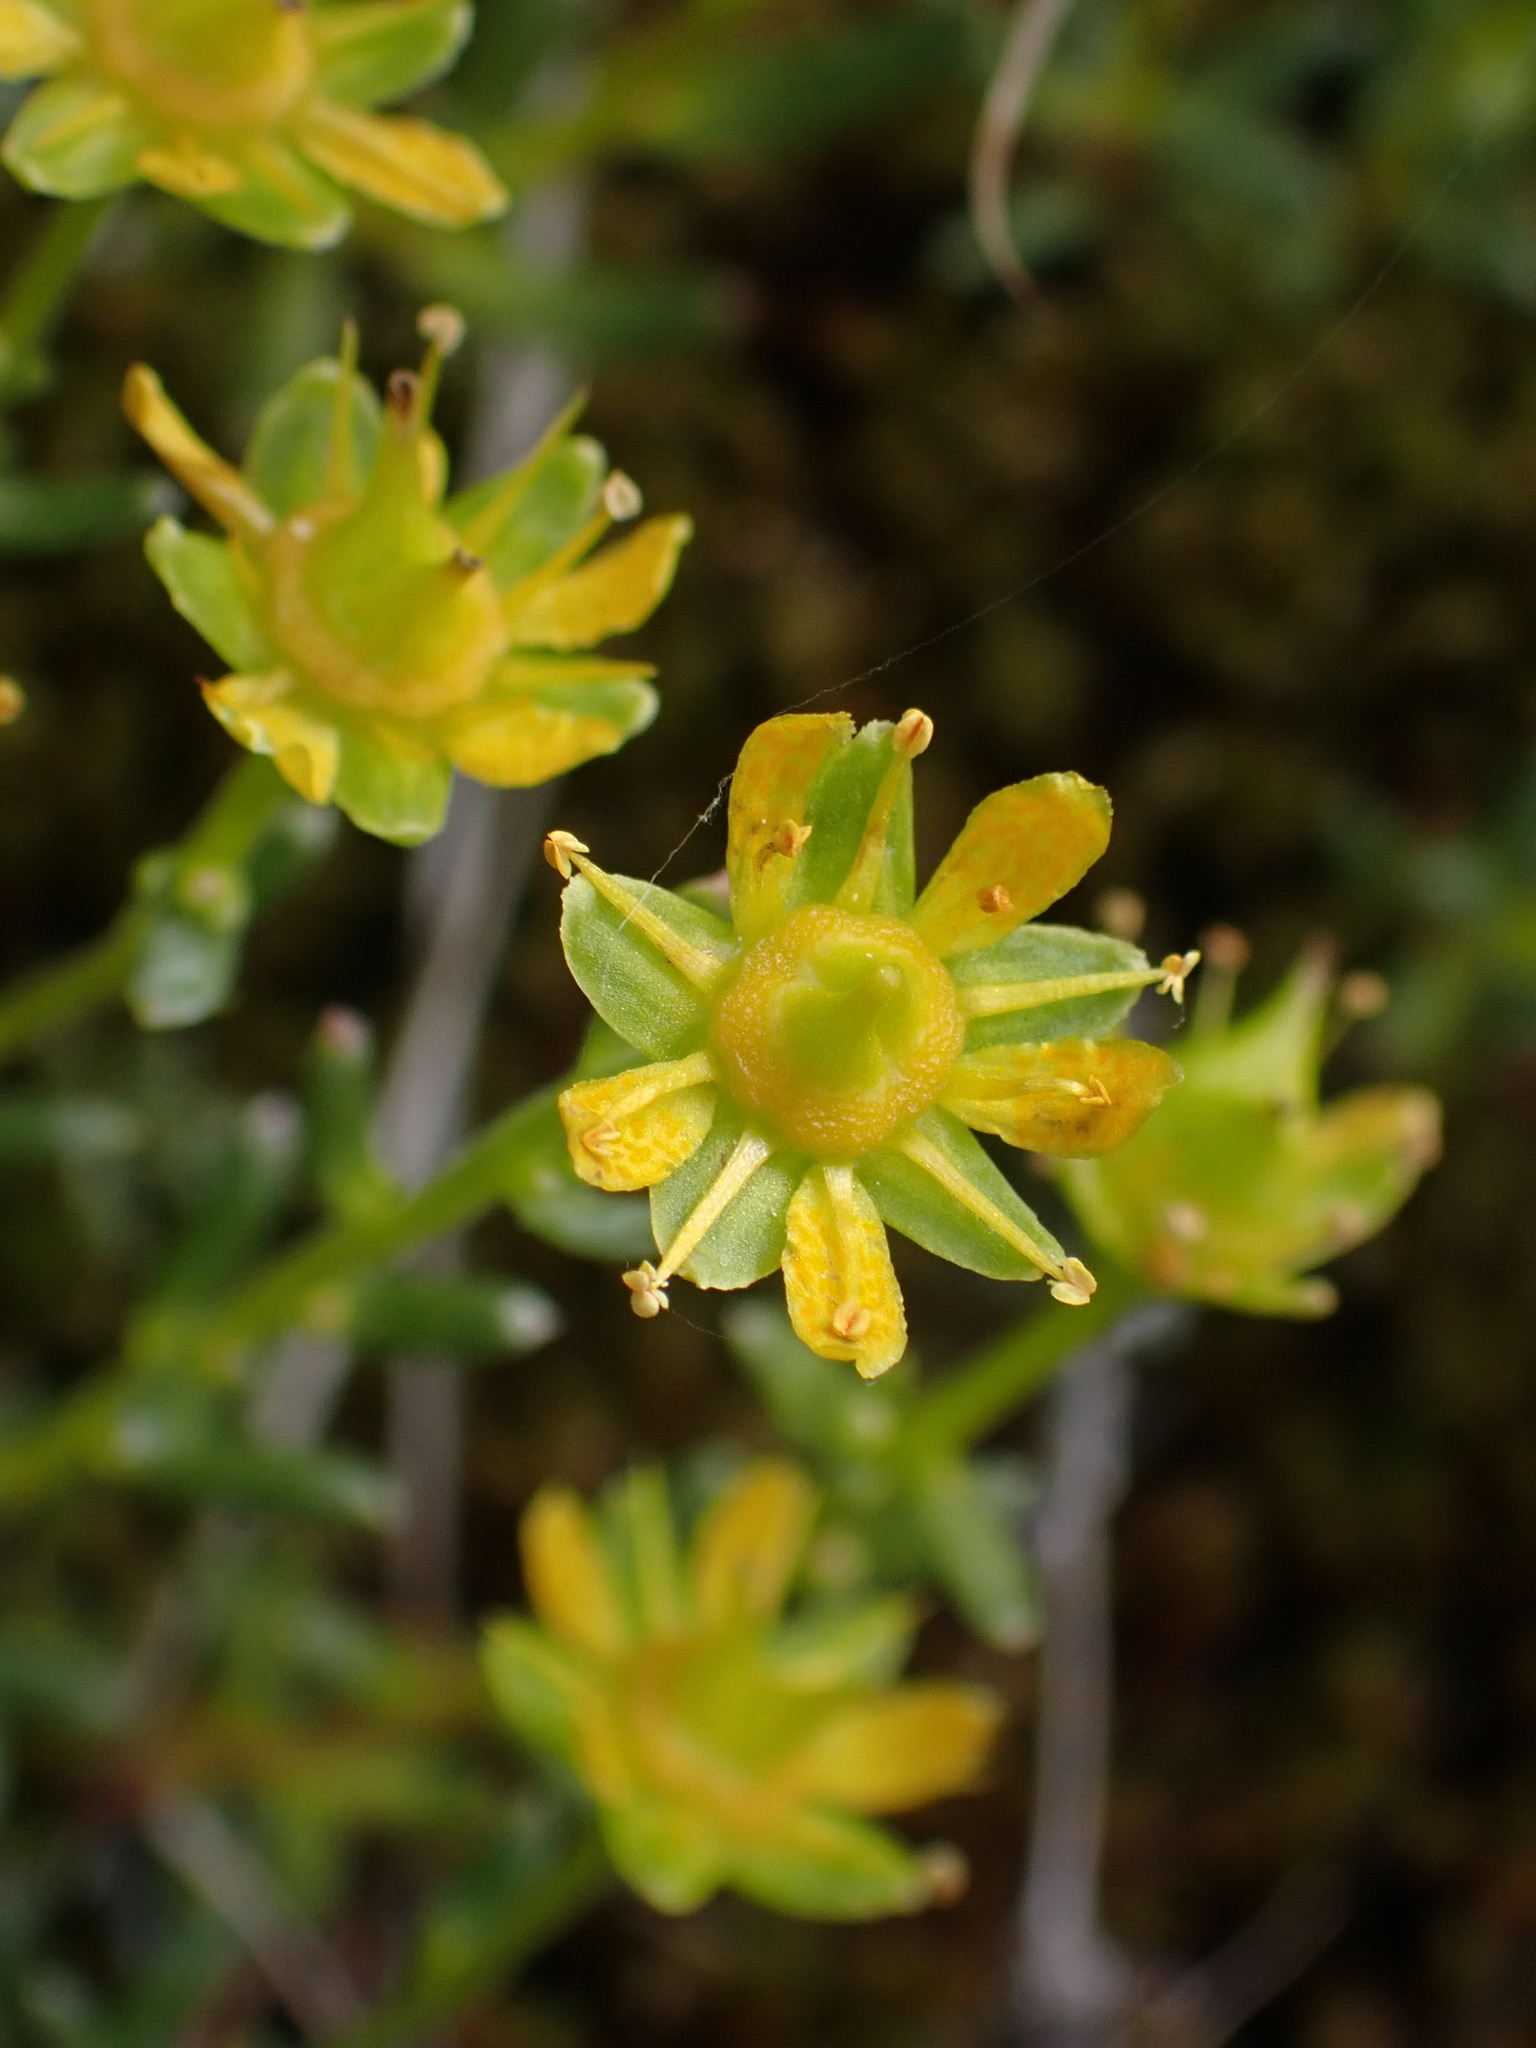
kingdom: Plantae
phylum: Tracheophyta
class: Magnoliopsida
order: Saxifragales
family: Saxifragaceae
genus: Saxifraga
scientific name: Saxifraga aizoides
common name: Yellow mountain saxifrage
